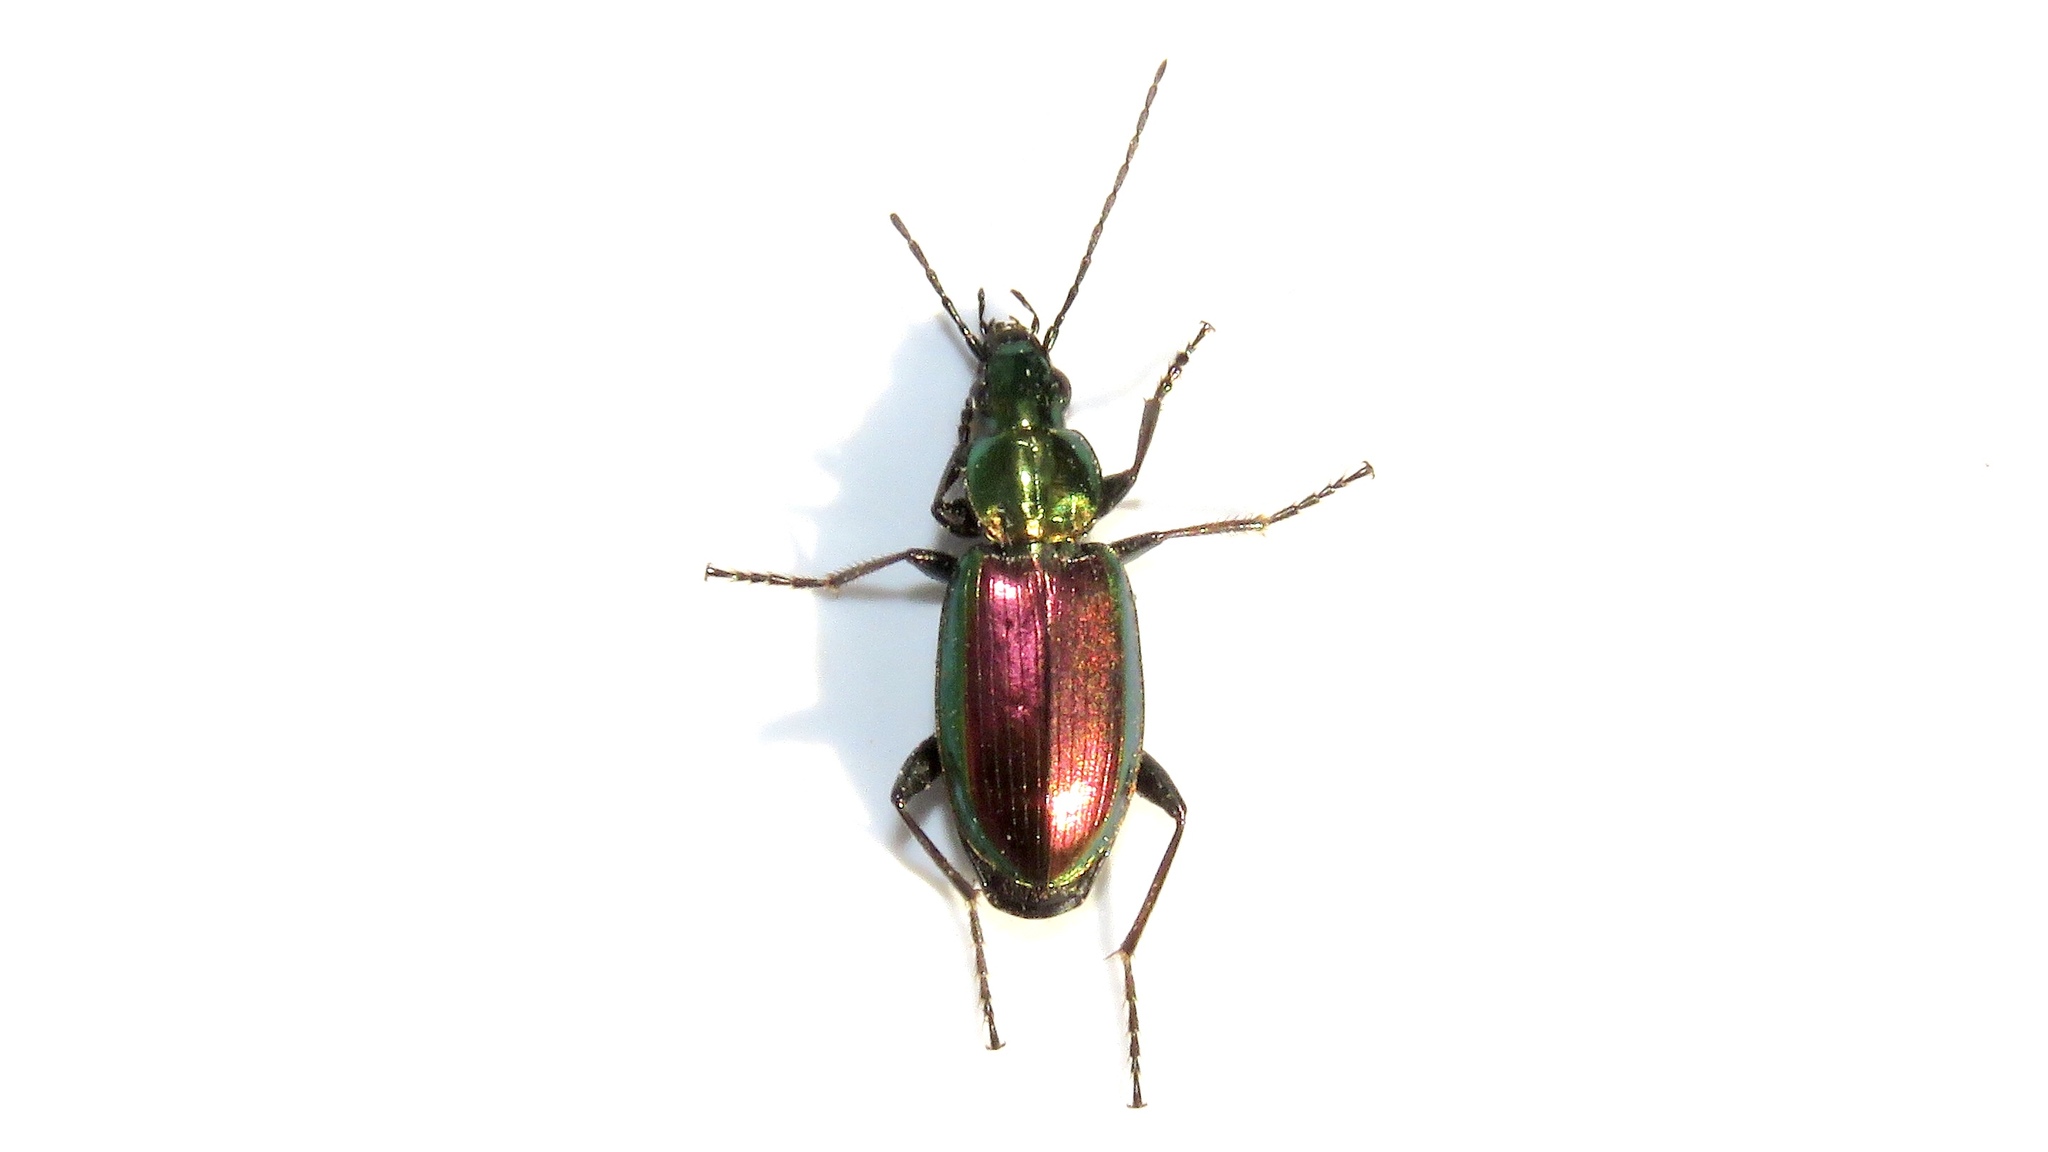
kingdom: Animalia
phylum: Arthropoda
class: Insecta
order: Coleoptera
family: Carabidae
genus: Agonum
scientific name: Agonum cupripenne
